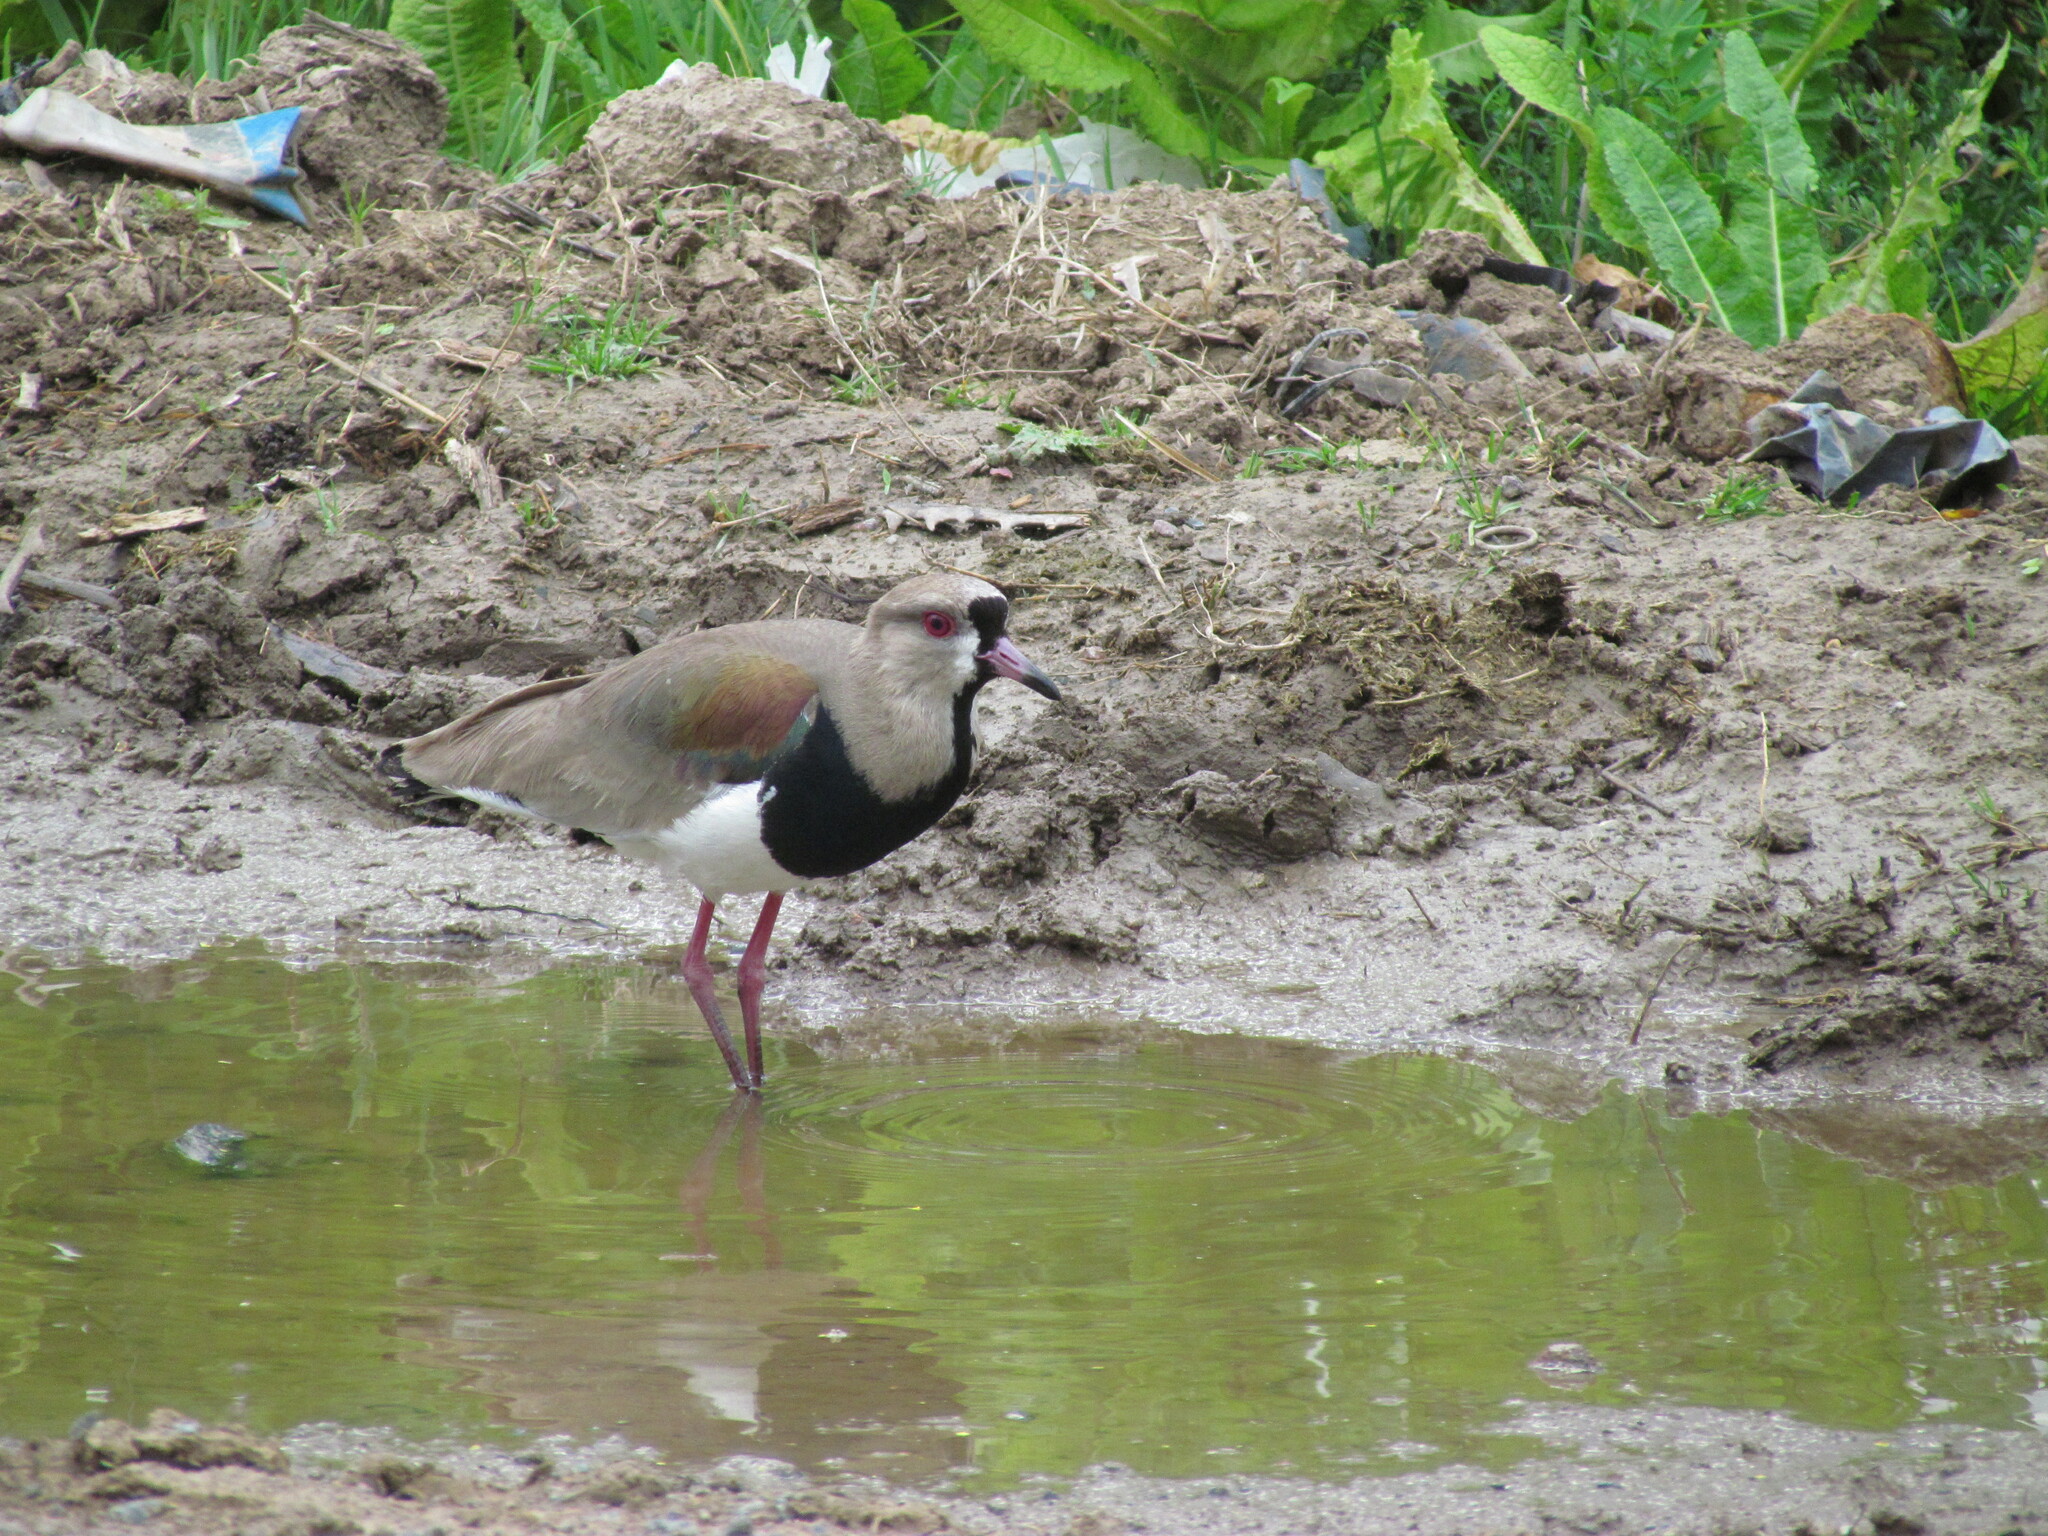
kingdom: Animalia
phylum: Chordata
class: Aves
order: Charadriiformes
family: Charadriidae
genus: Vanellus
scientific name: Vanellus chilensis
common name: Southern lapwing
